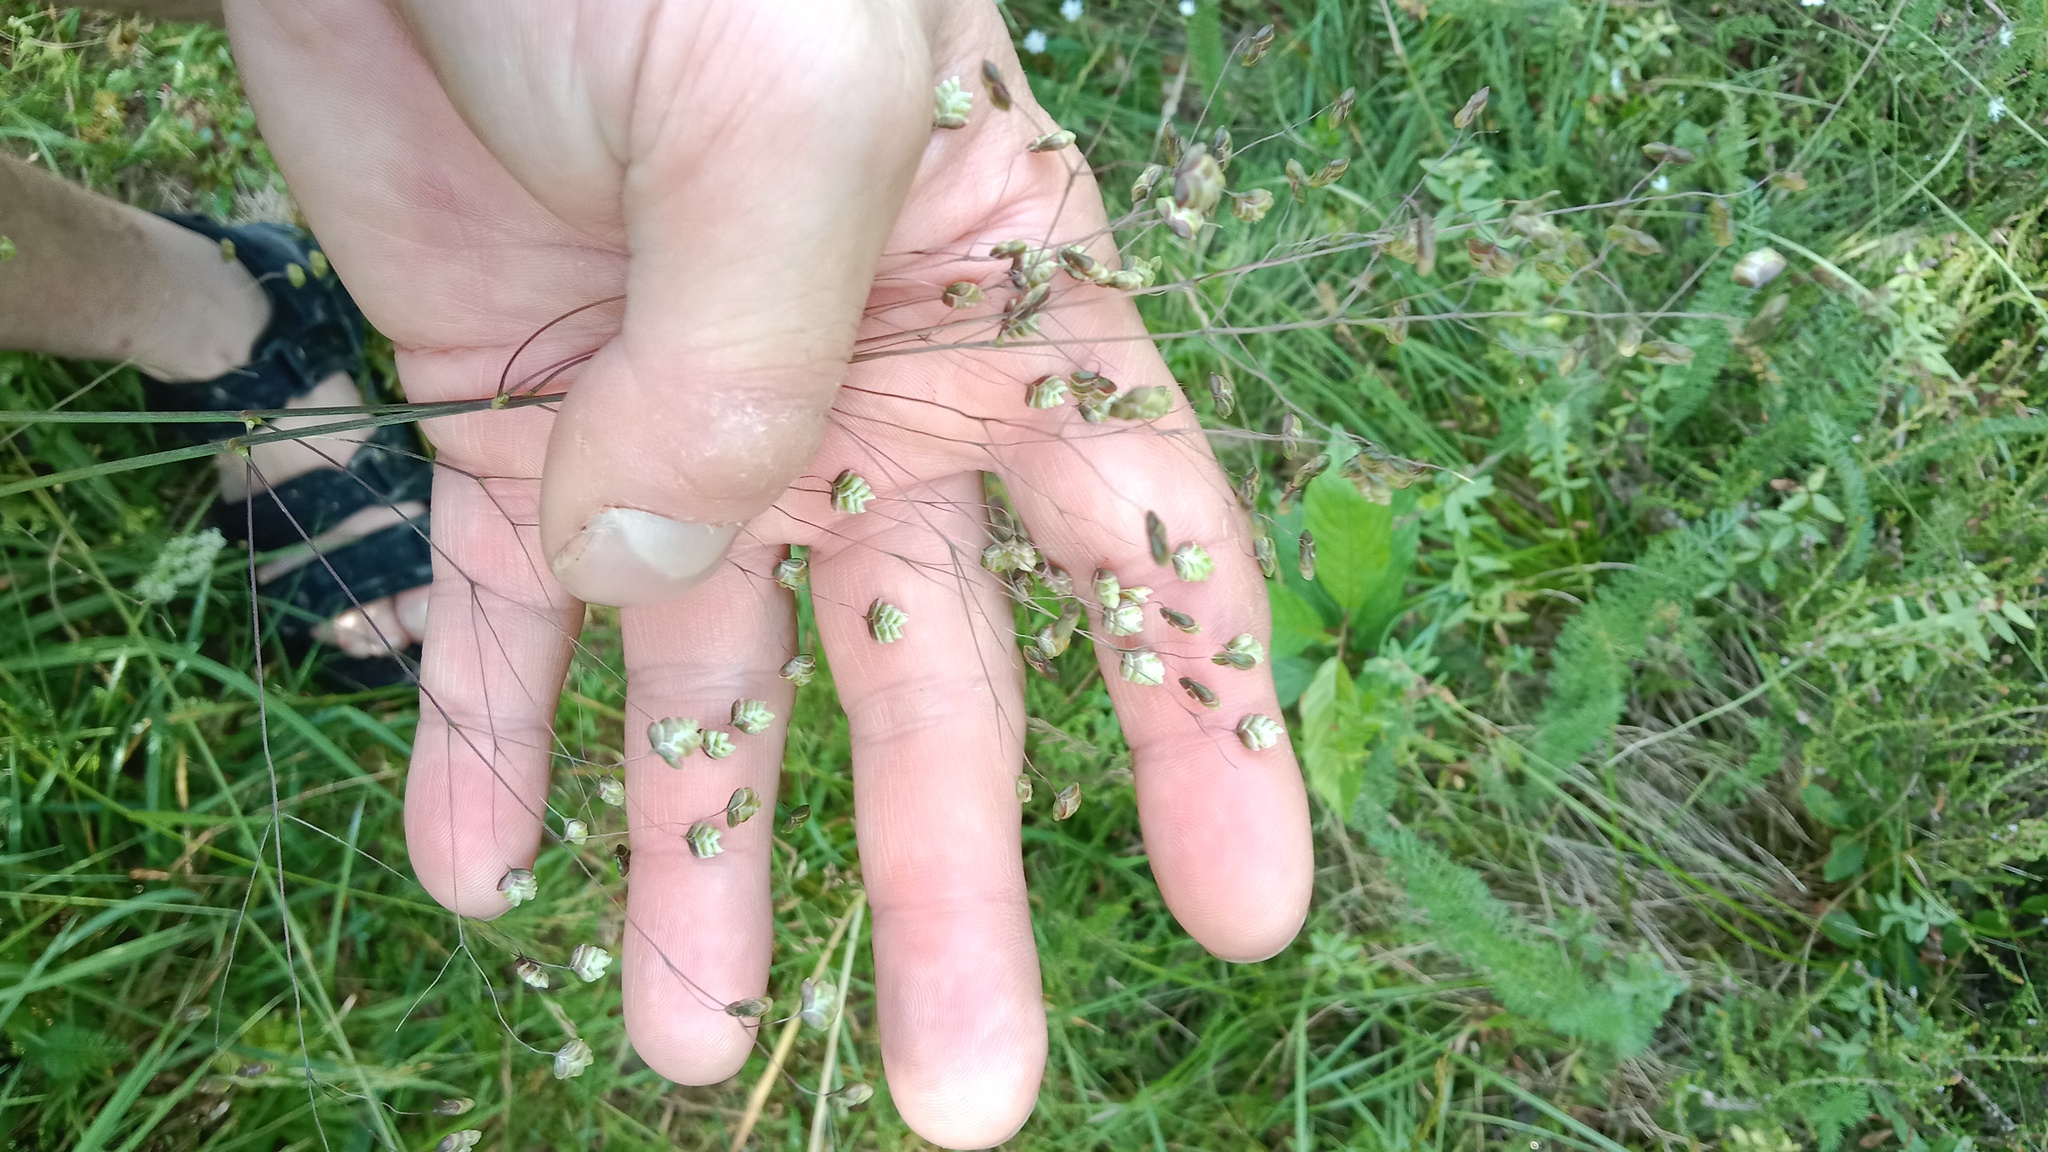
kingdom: Plantae
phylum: Tracheophyta
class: Liliopsida
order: Poales
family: Poaceae
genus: Briza
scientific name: Briza media
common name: Quaking grass
